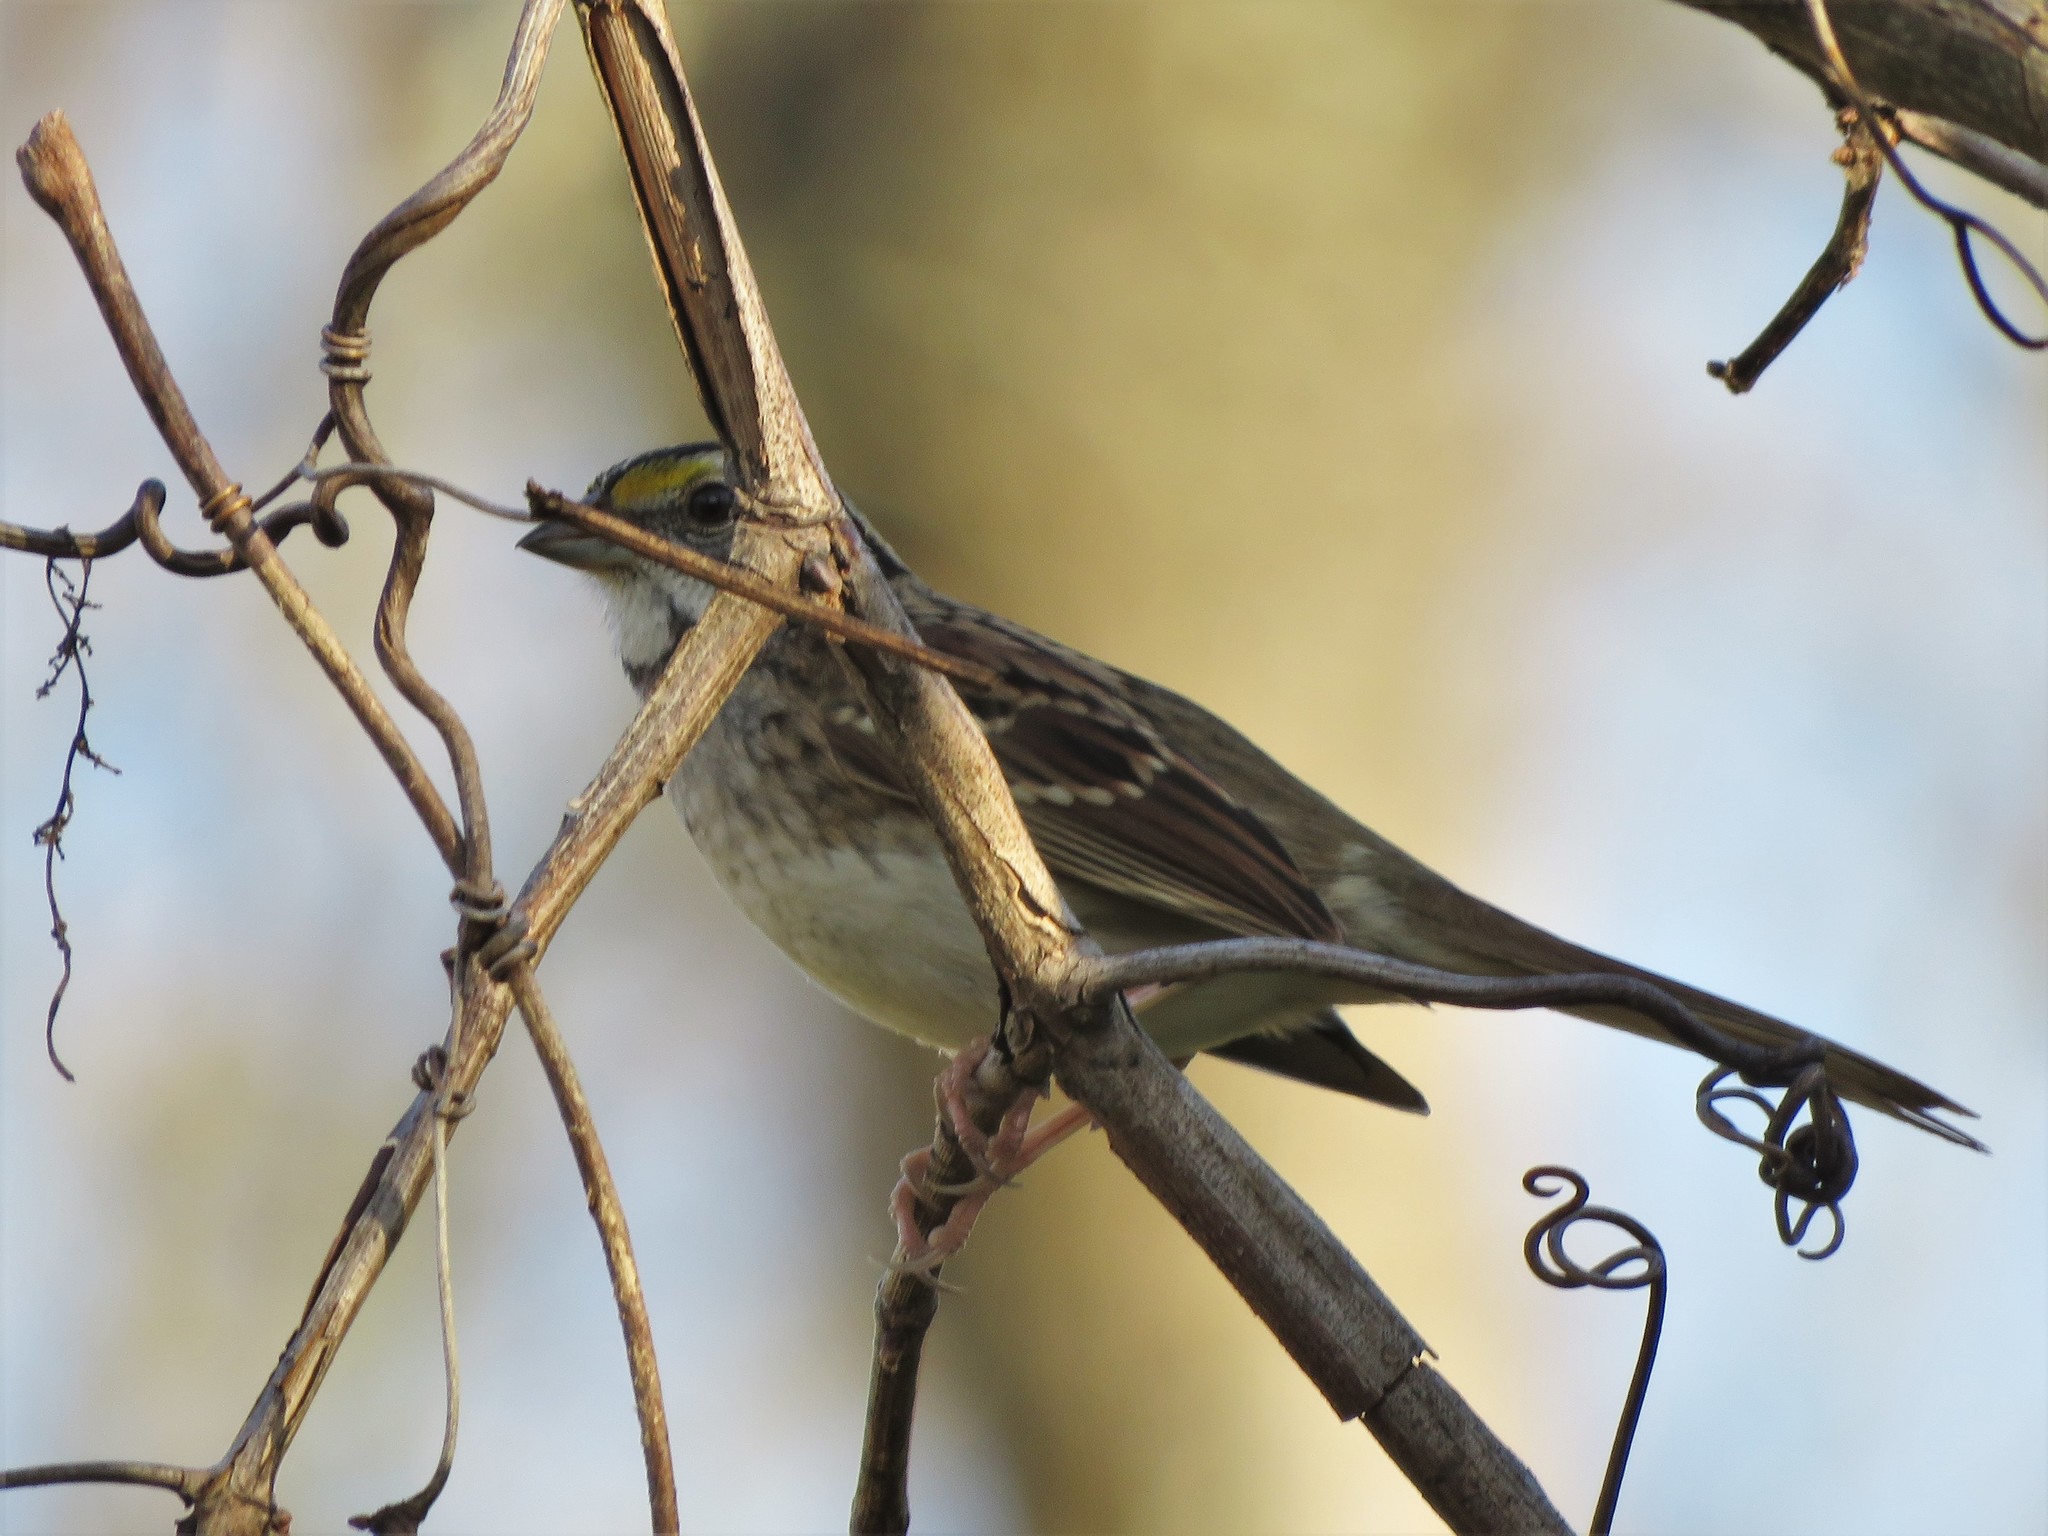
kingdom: Animalia
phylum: Chordata
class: Aves
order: Passeriformes
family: Passerellidae
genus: Zonotrichia
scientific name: Zonotrichia albicollis
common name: White-throated sparrow
